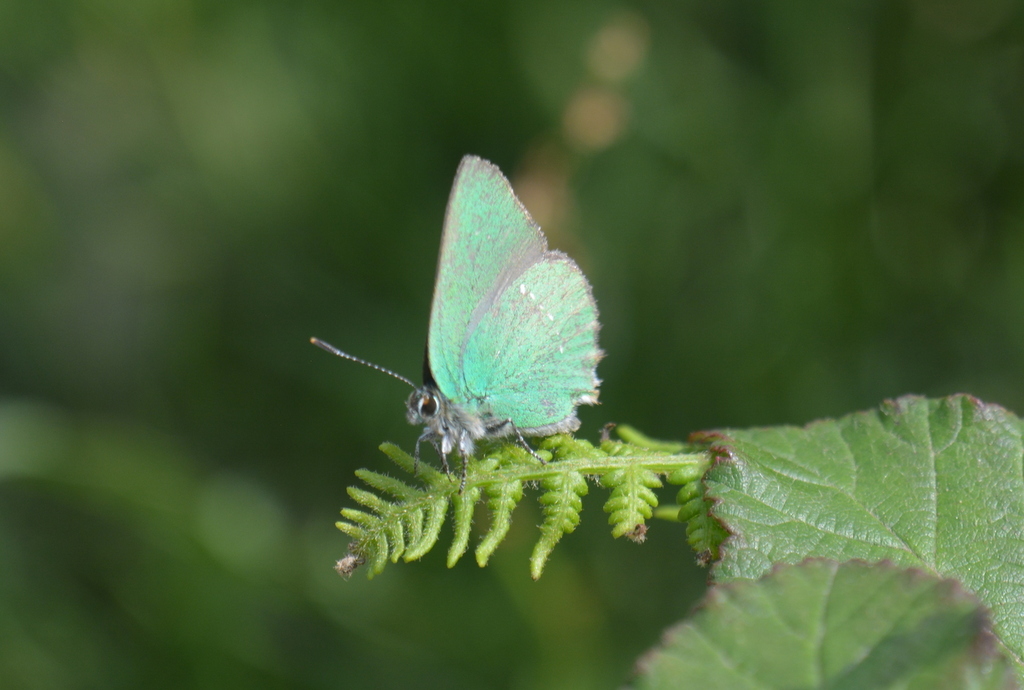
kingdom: Animalia
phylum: Arthropoda
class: Insecta
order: Lepidoptera
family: Lycaenidae
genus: Callophrys
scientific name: Callophrys rubi
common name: Green hairstreak
